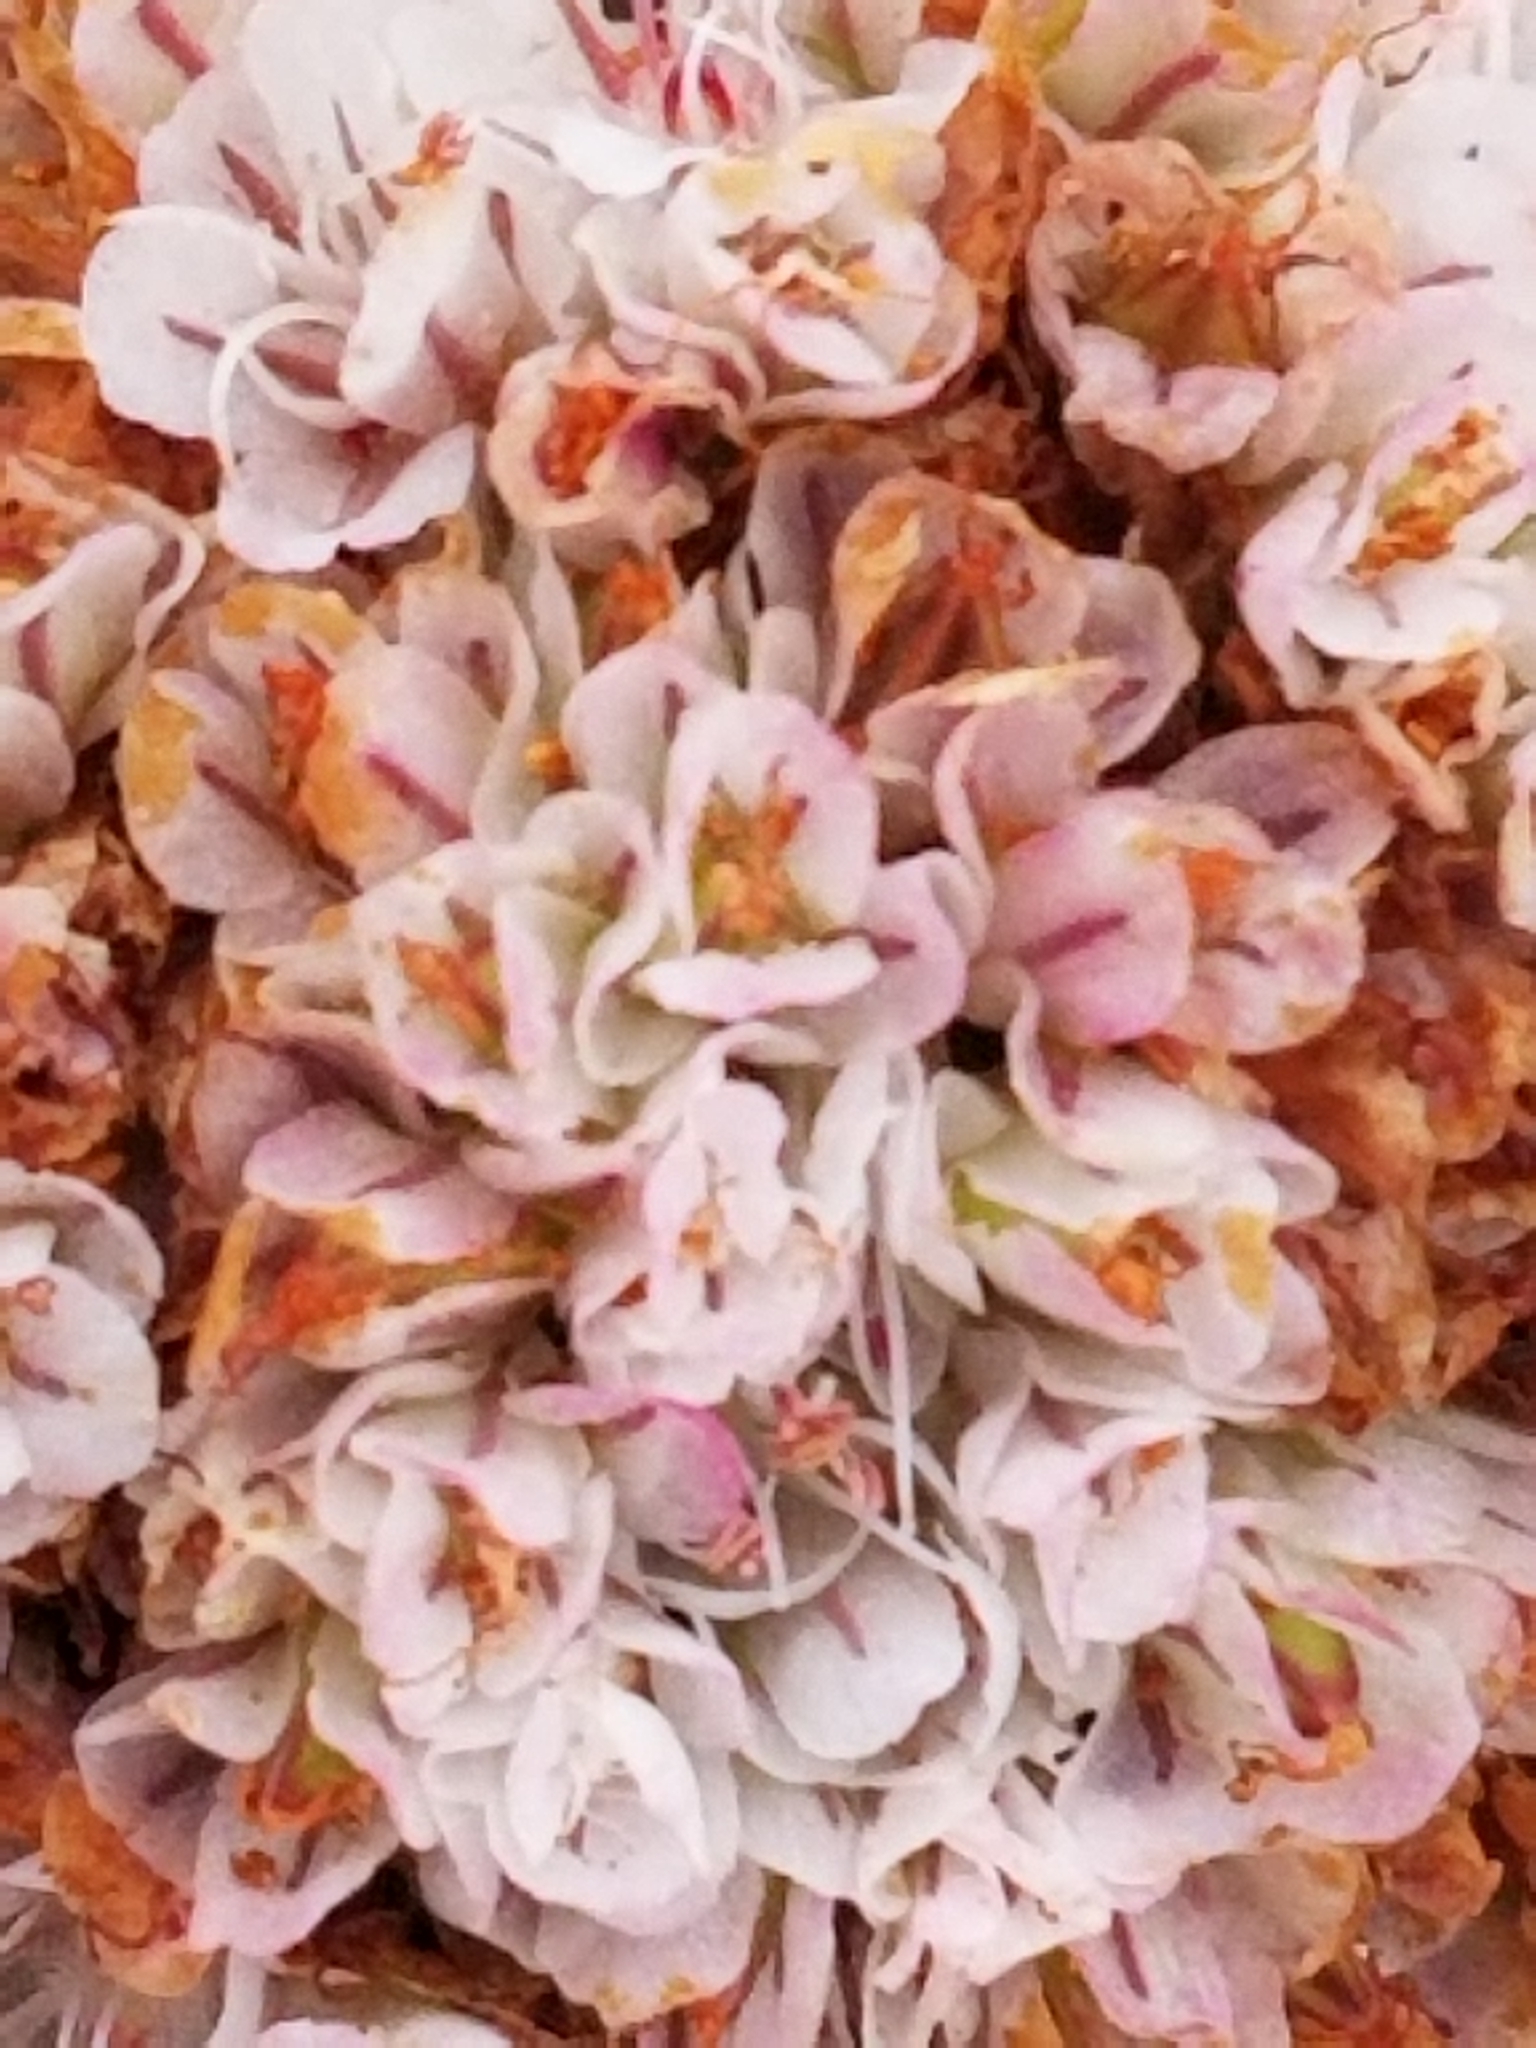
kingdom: Plantae
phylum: Tracheophyta
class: Magnoliopsida
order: Caryophyllales
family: Polygonaceae
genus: Eriogonum
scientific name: Eriogonum latifolium
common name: Seaside wild buckwheat
